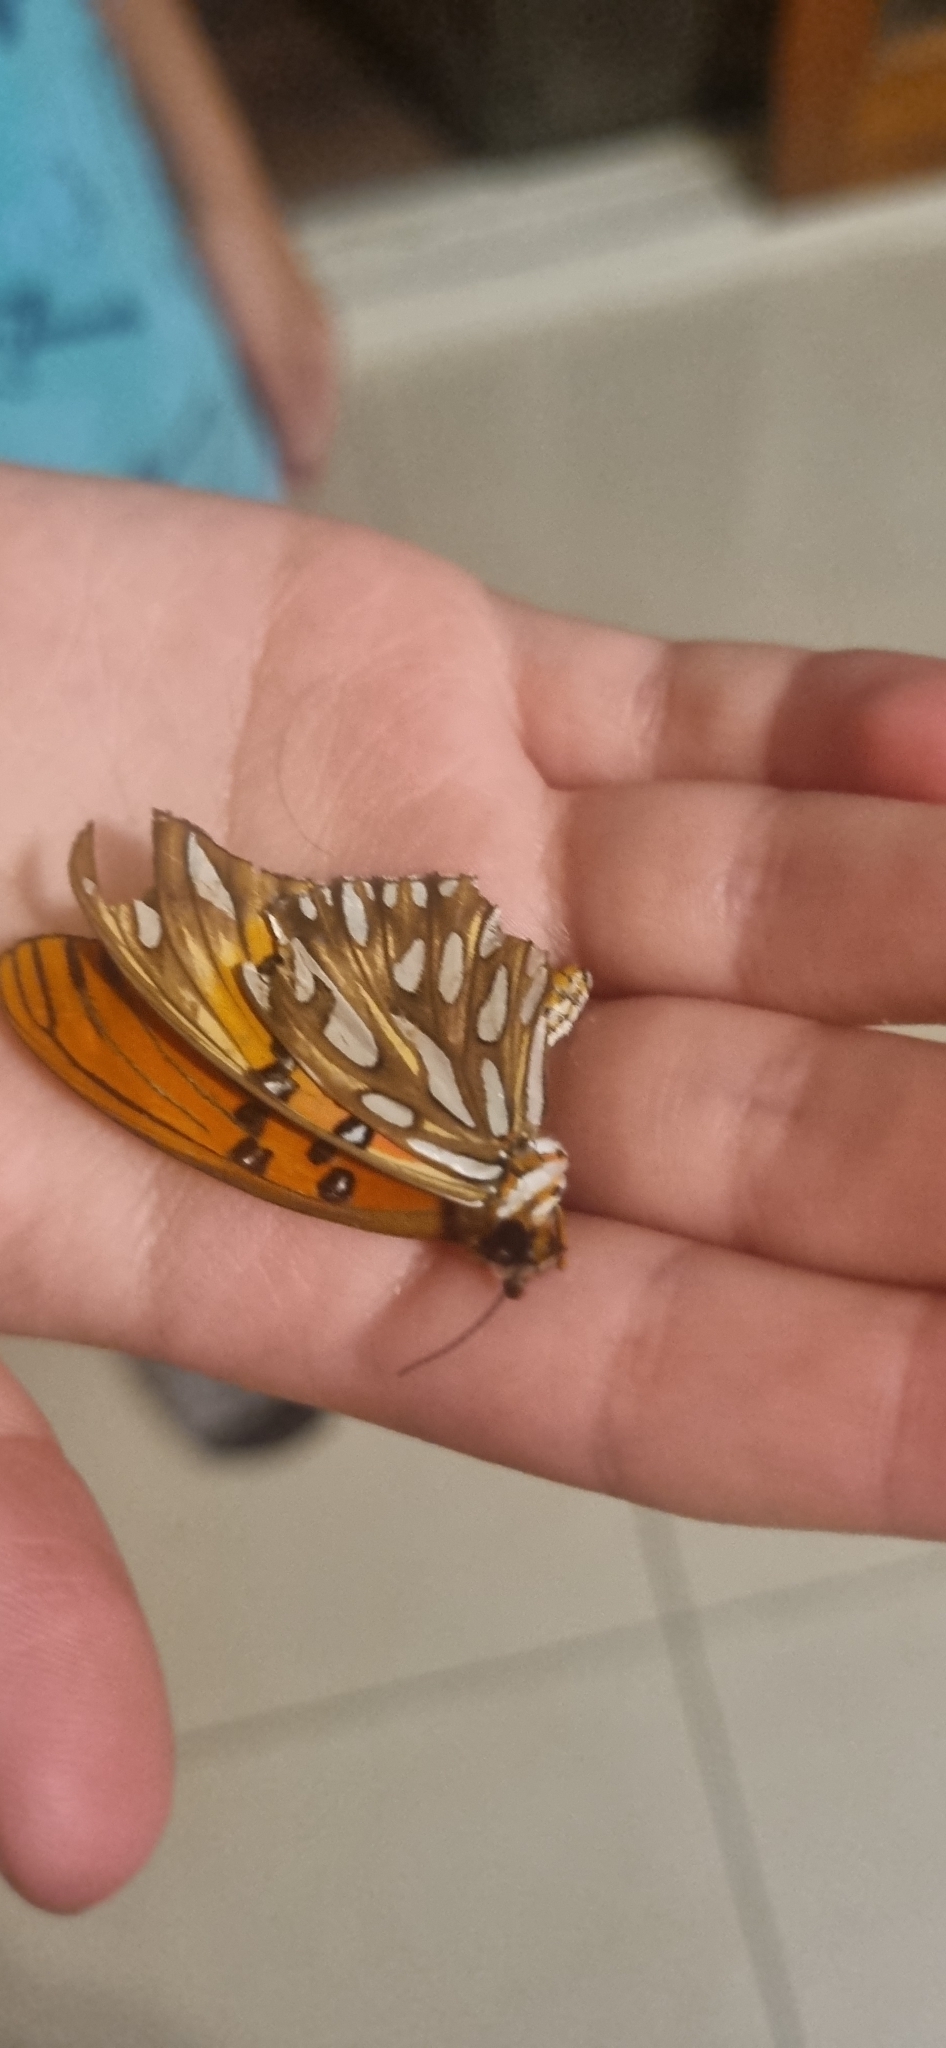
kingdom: Animalia
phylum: Arthropoda
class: Insecta
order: Lepidoptera
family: Nymphalidae
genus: Dione
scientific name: Dione vanillae
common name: Gulf fritillary
